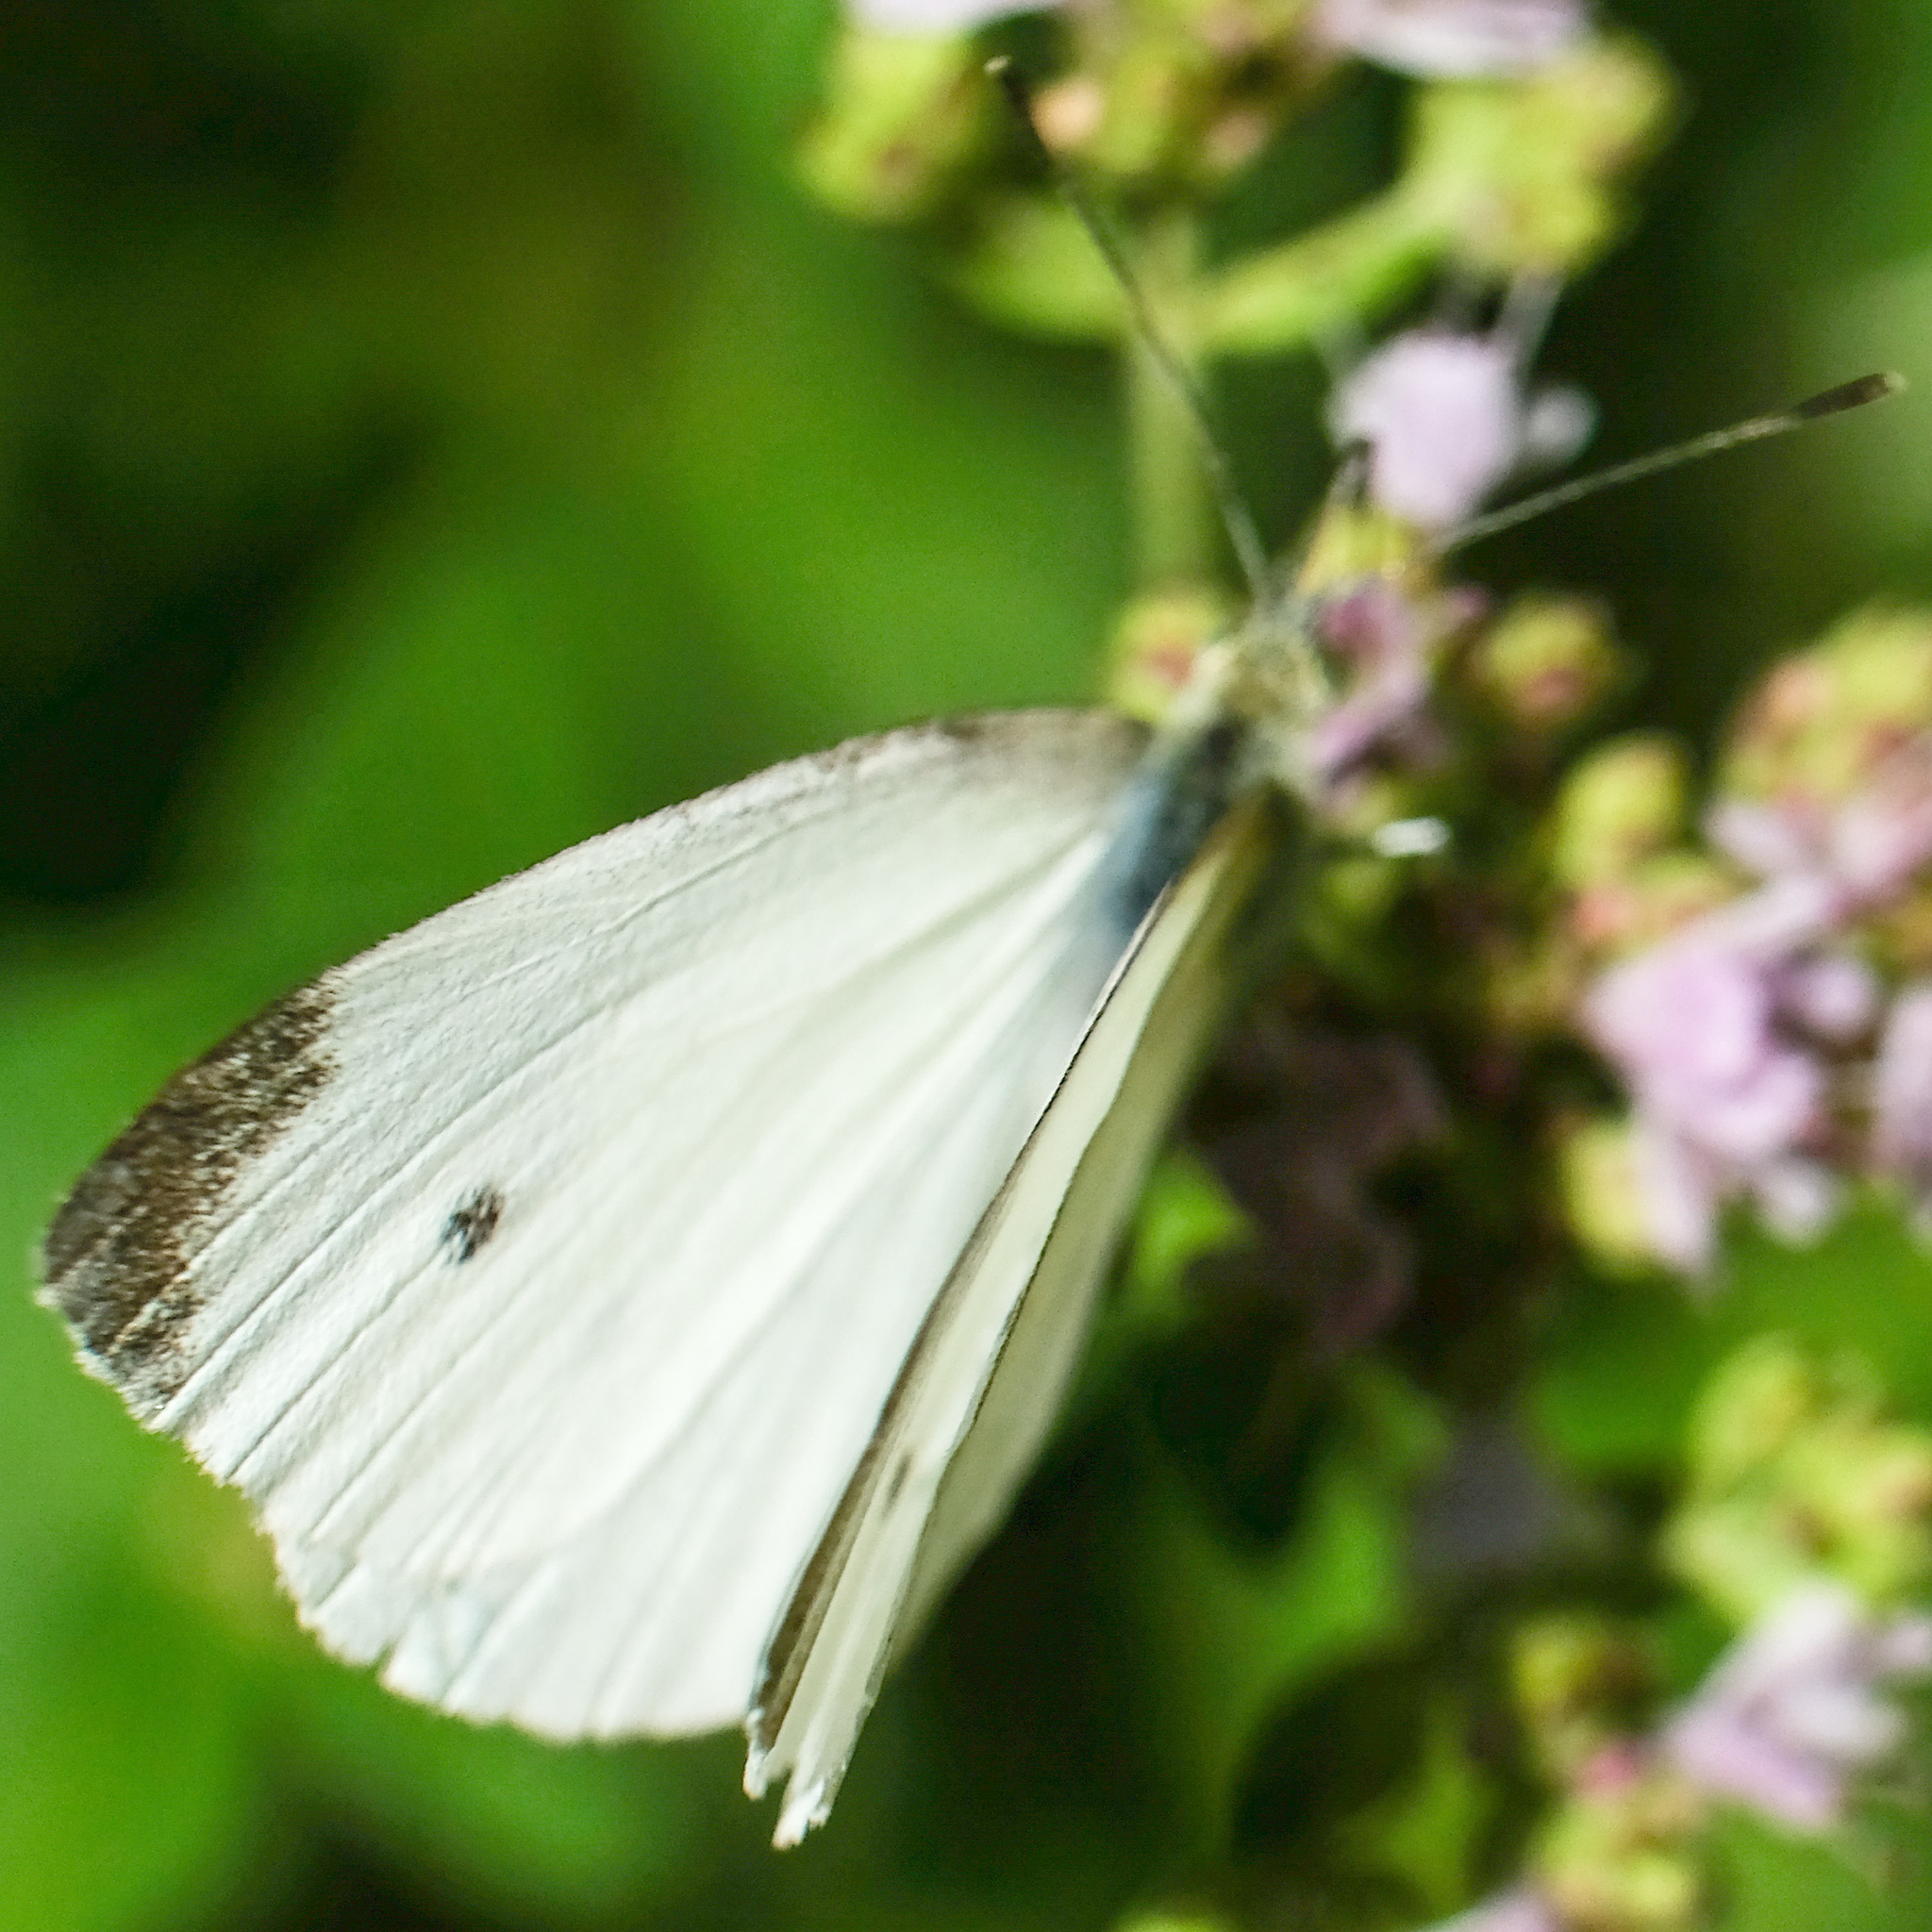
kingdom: Animalia
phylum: Arthropoda
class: Insecta
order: Lepidoptera
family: Pieridae
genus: Pieris
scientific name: Pieris rapae
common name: Small white
